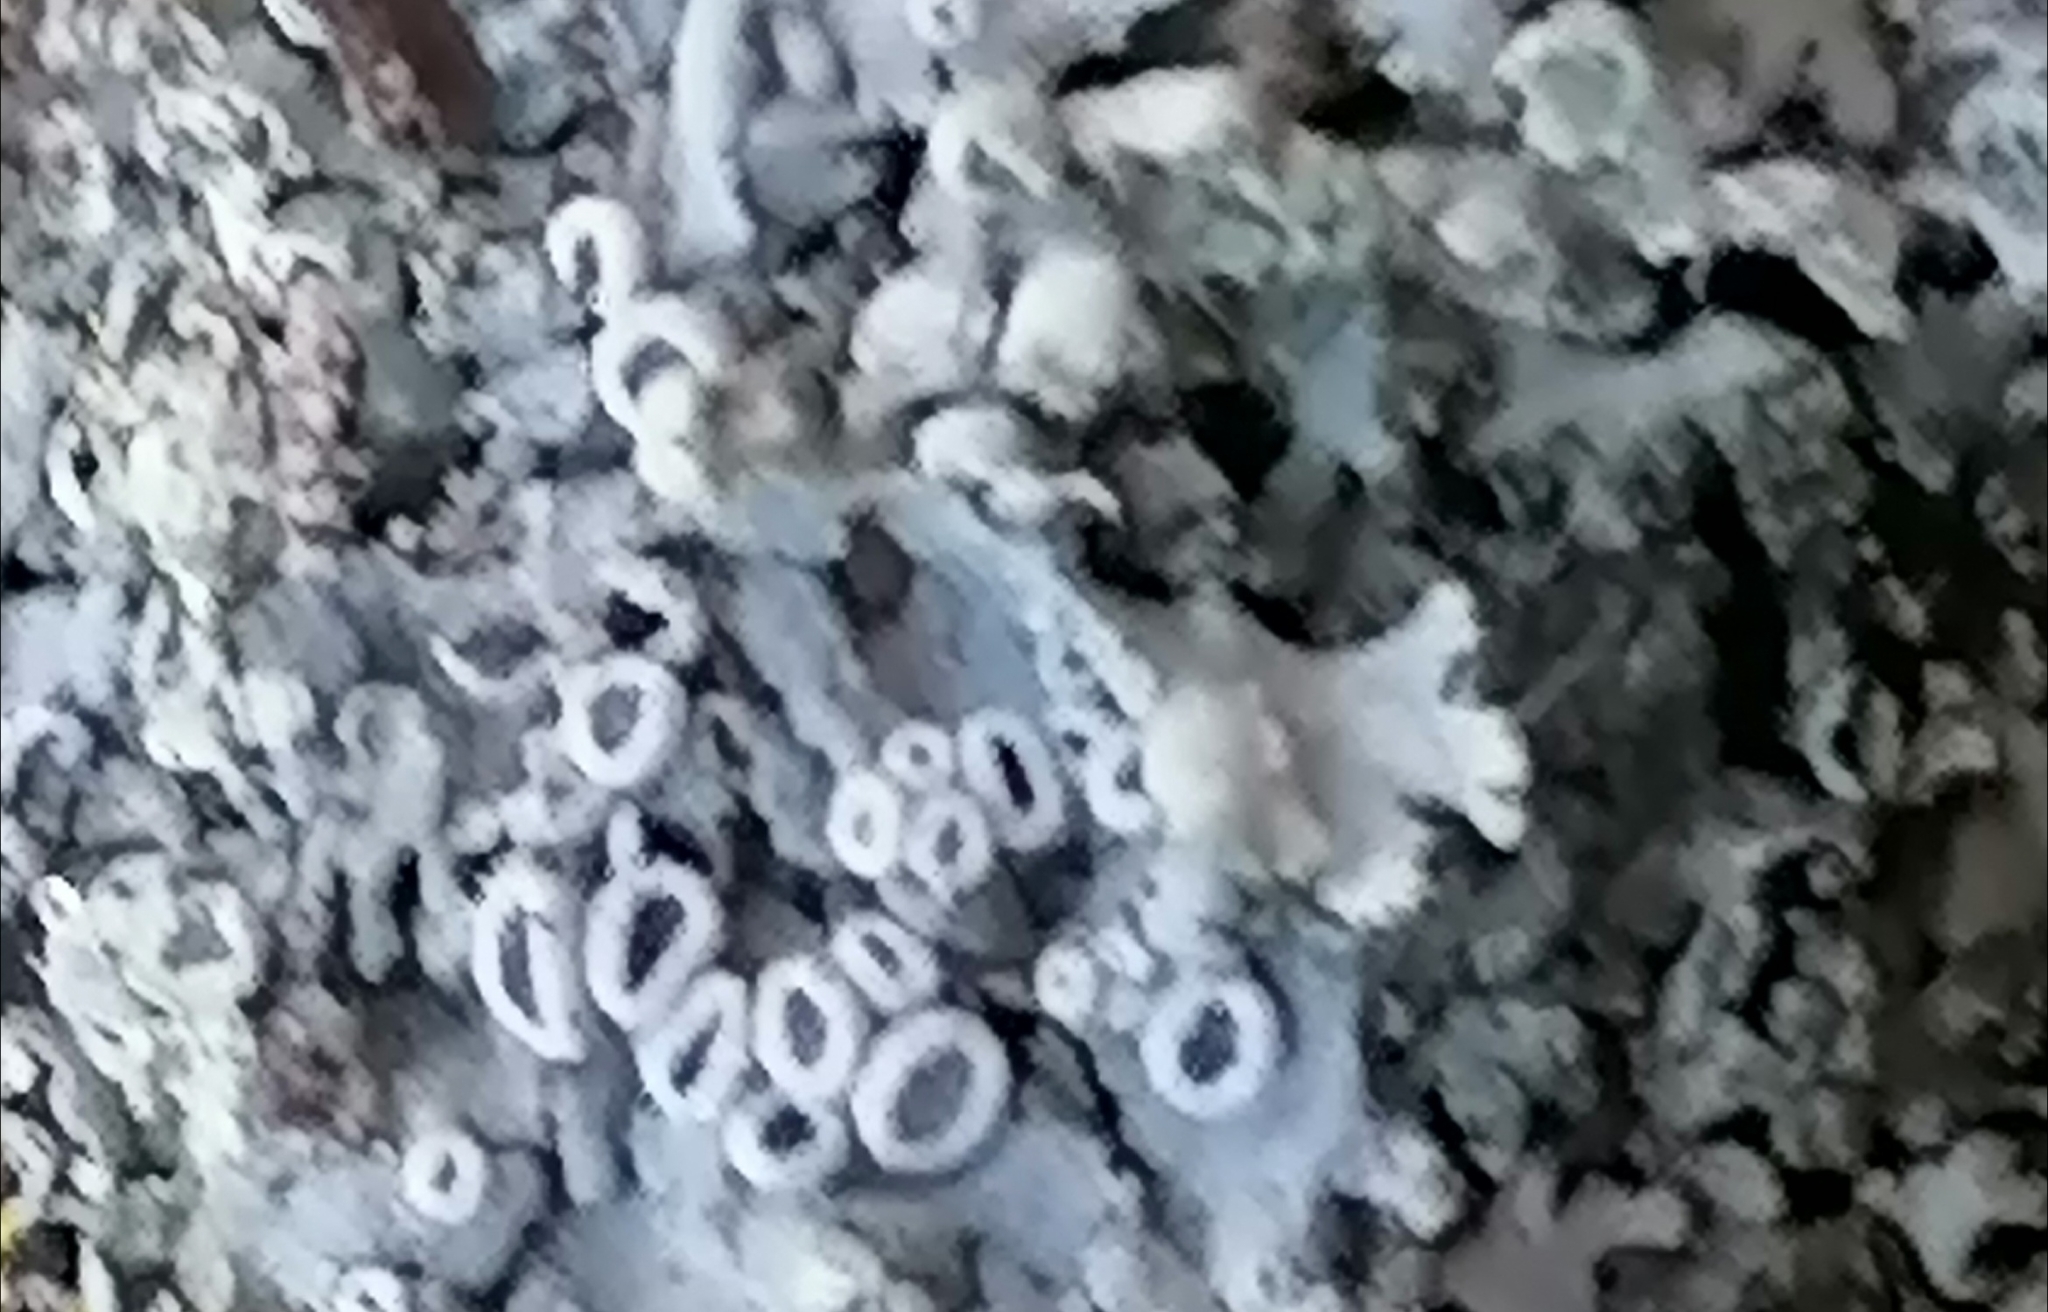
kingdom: Fungi
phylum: Ascomycota
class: Lecanoromycetes
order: Caliciales
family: Physciaceae
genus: Physcia
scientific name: Physcia stellaris
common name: Star rosette lichen
